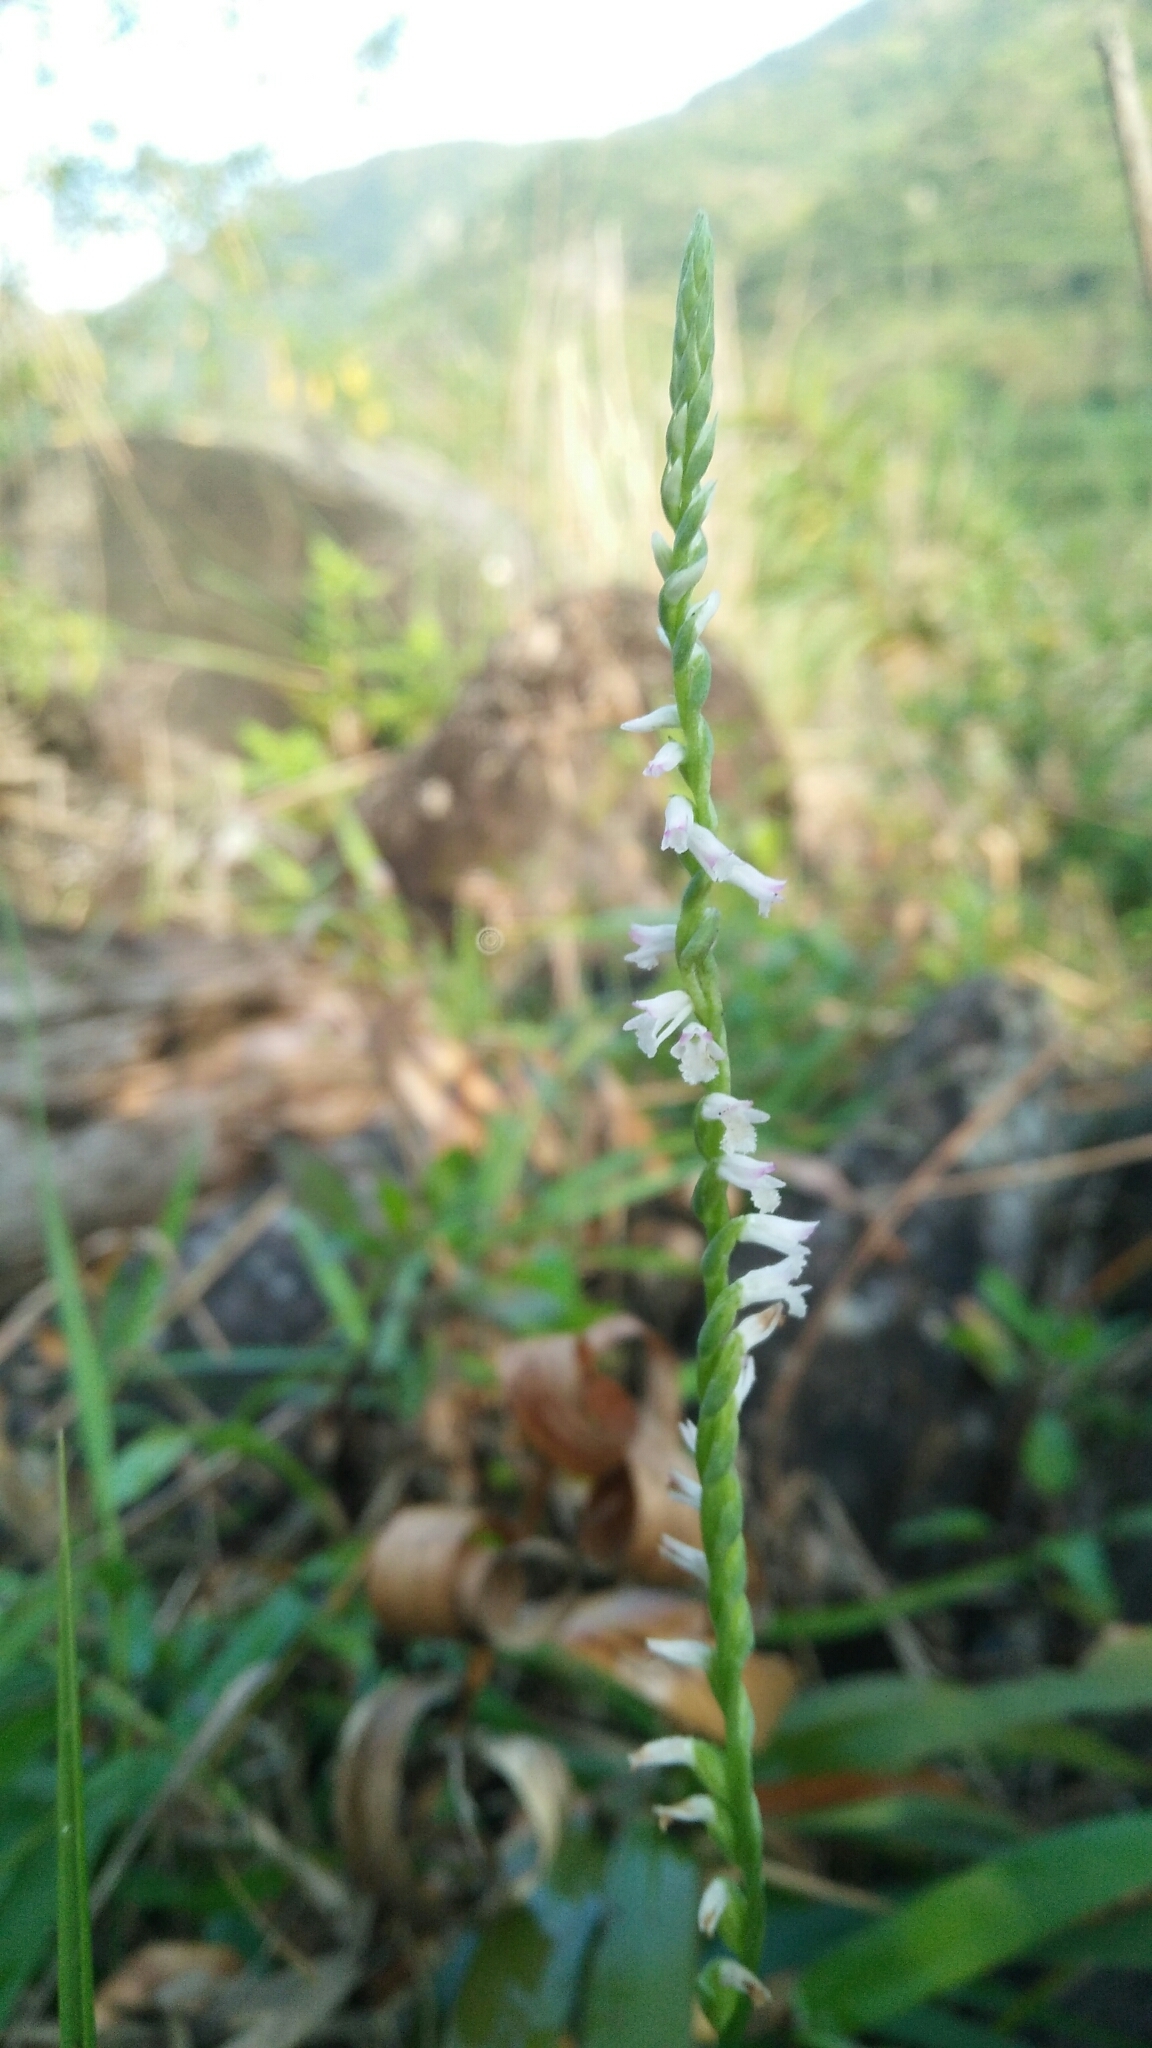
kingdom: Plantae
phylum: Tracheophyta
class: Liliopsida
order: Asparagales
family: Orchidaceae
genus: Spiranthes
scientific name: Spiranthes sinensis
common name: Chinese spiranthes
